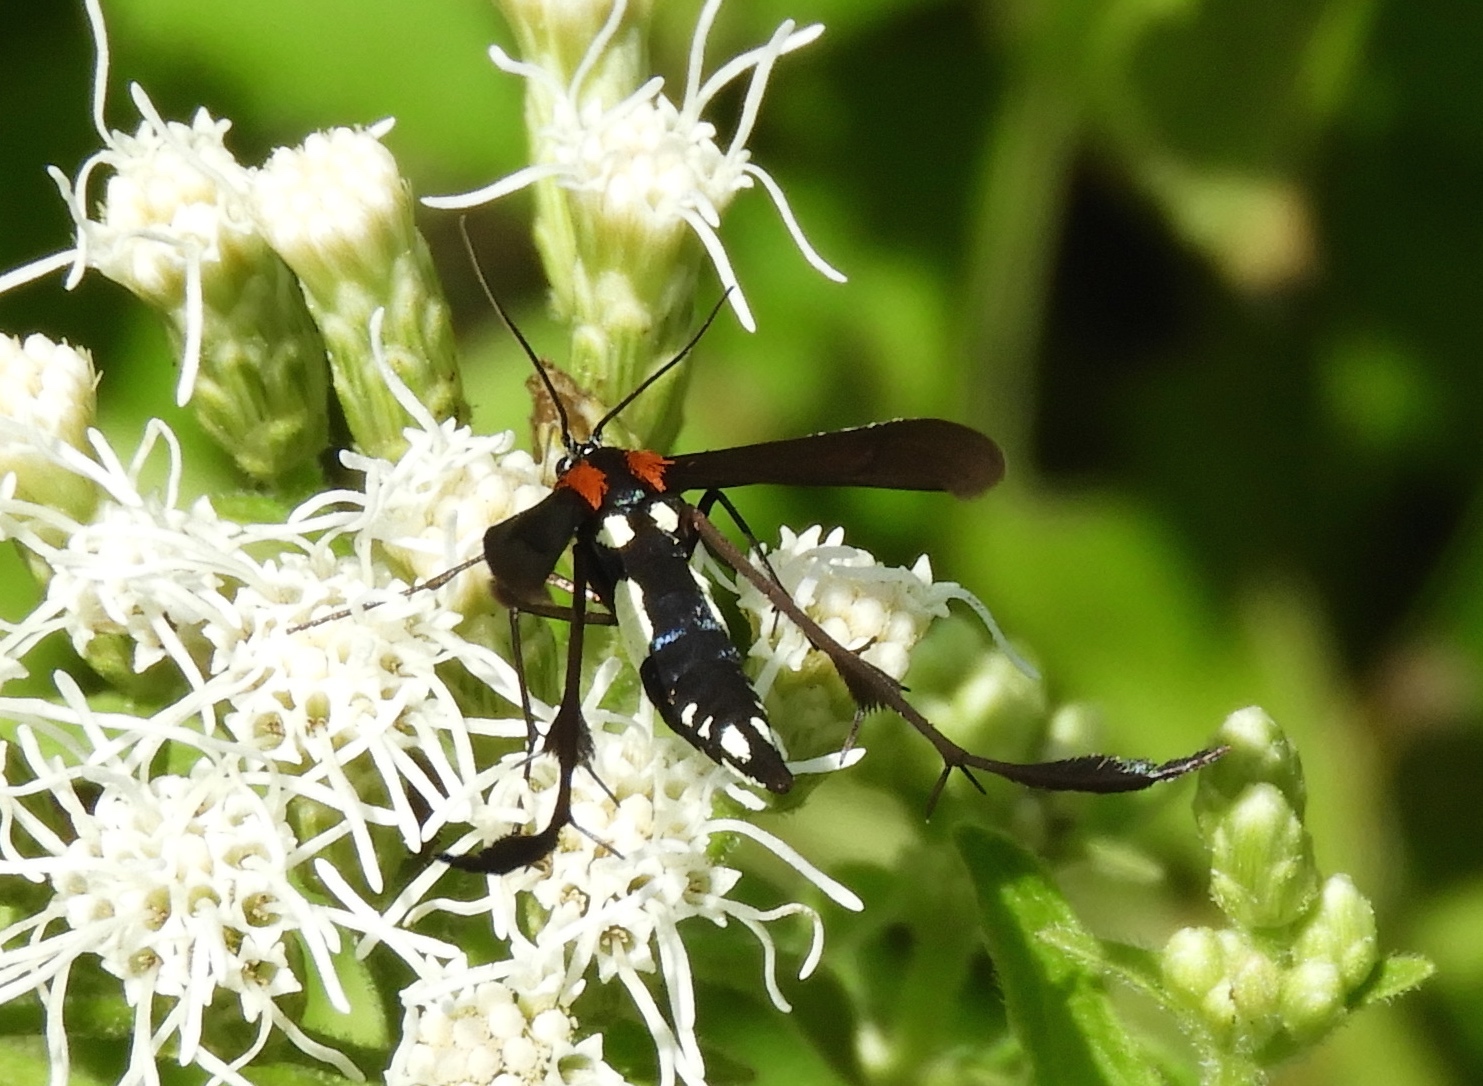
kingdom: Animalia
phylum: Arthropoda
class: Insecta
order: Lepidoptera
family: Pterophoridae
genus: Hellinsia
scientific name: Hellinsia chamelai
